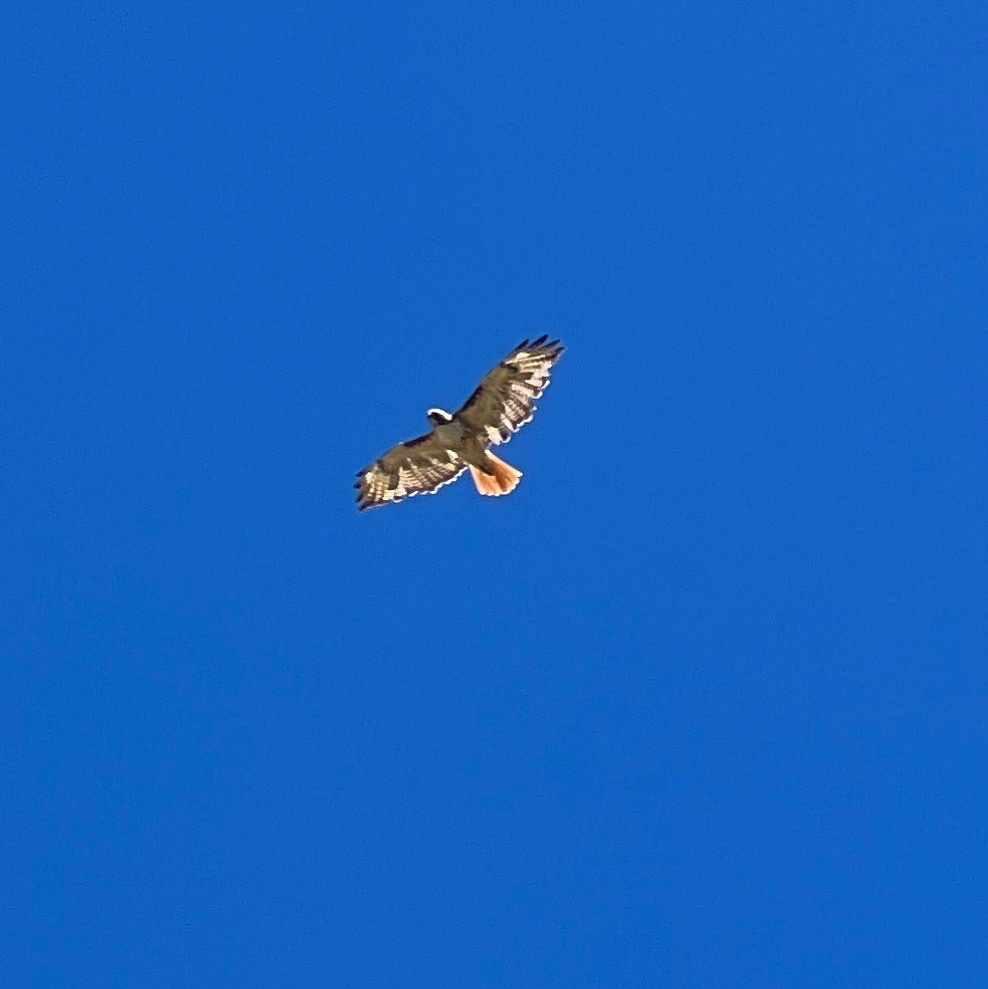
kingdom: Animalia
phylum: Chordata
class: Aves
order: Accipitriformes
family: Accipitridae
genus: Buteo
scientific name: Buteo jamaicensis
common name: Red-tailed hawk
